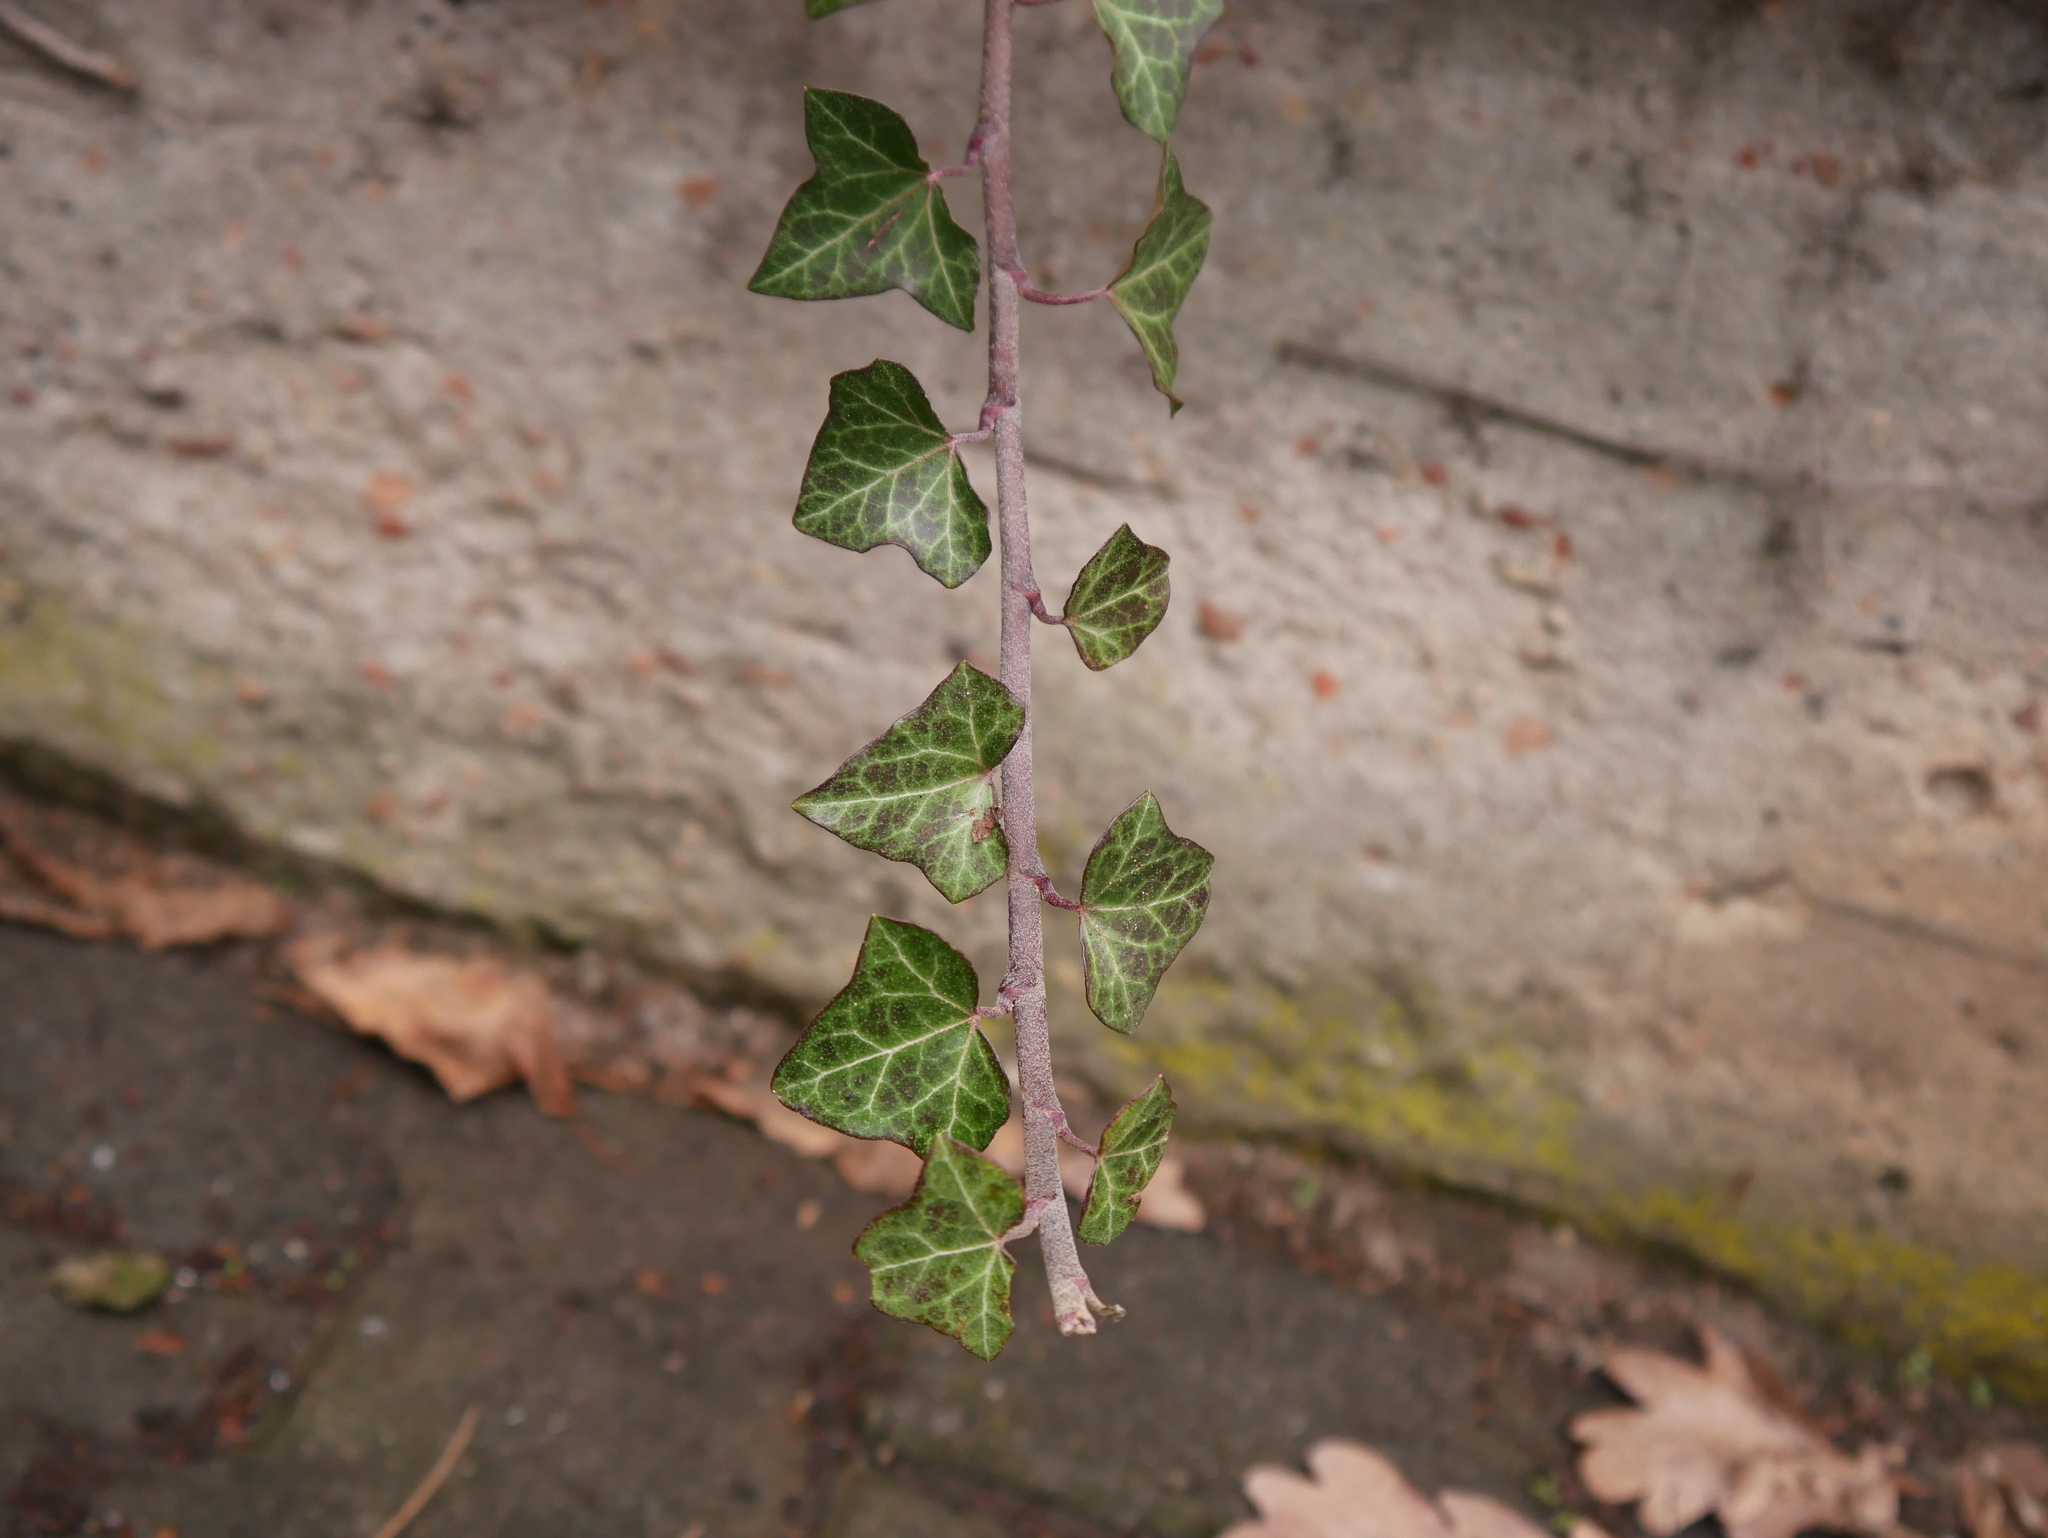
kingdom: Plantae
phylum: Tracheophyta
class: Magnoliopsida
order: Apiales
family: Araliaceae
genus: Hedera
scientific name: Hedera helix
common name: Ivy
